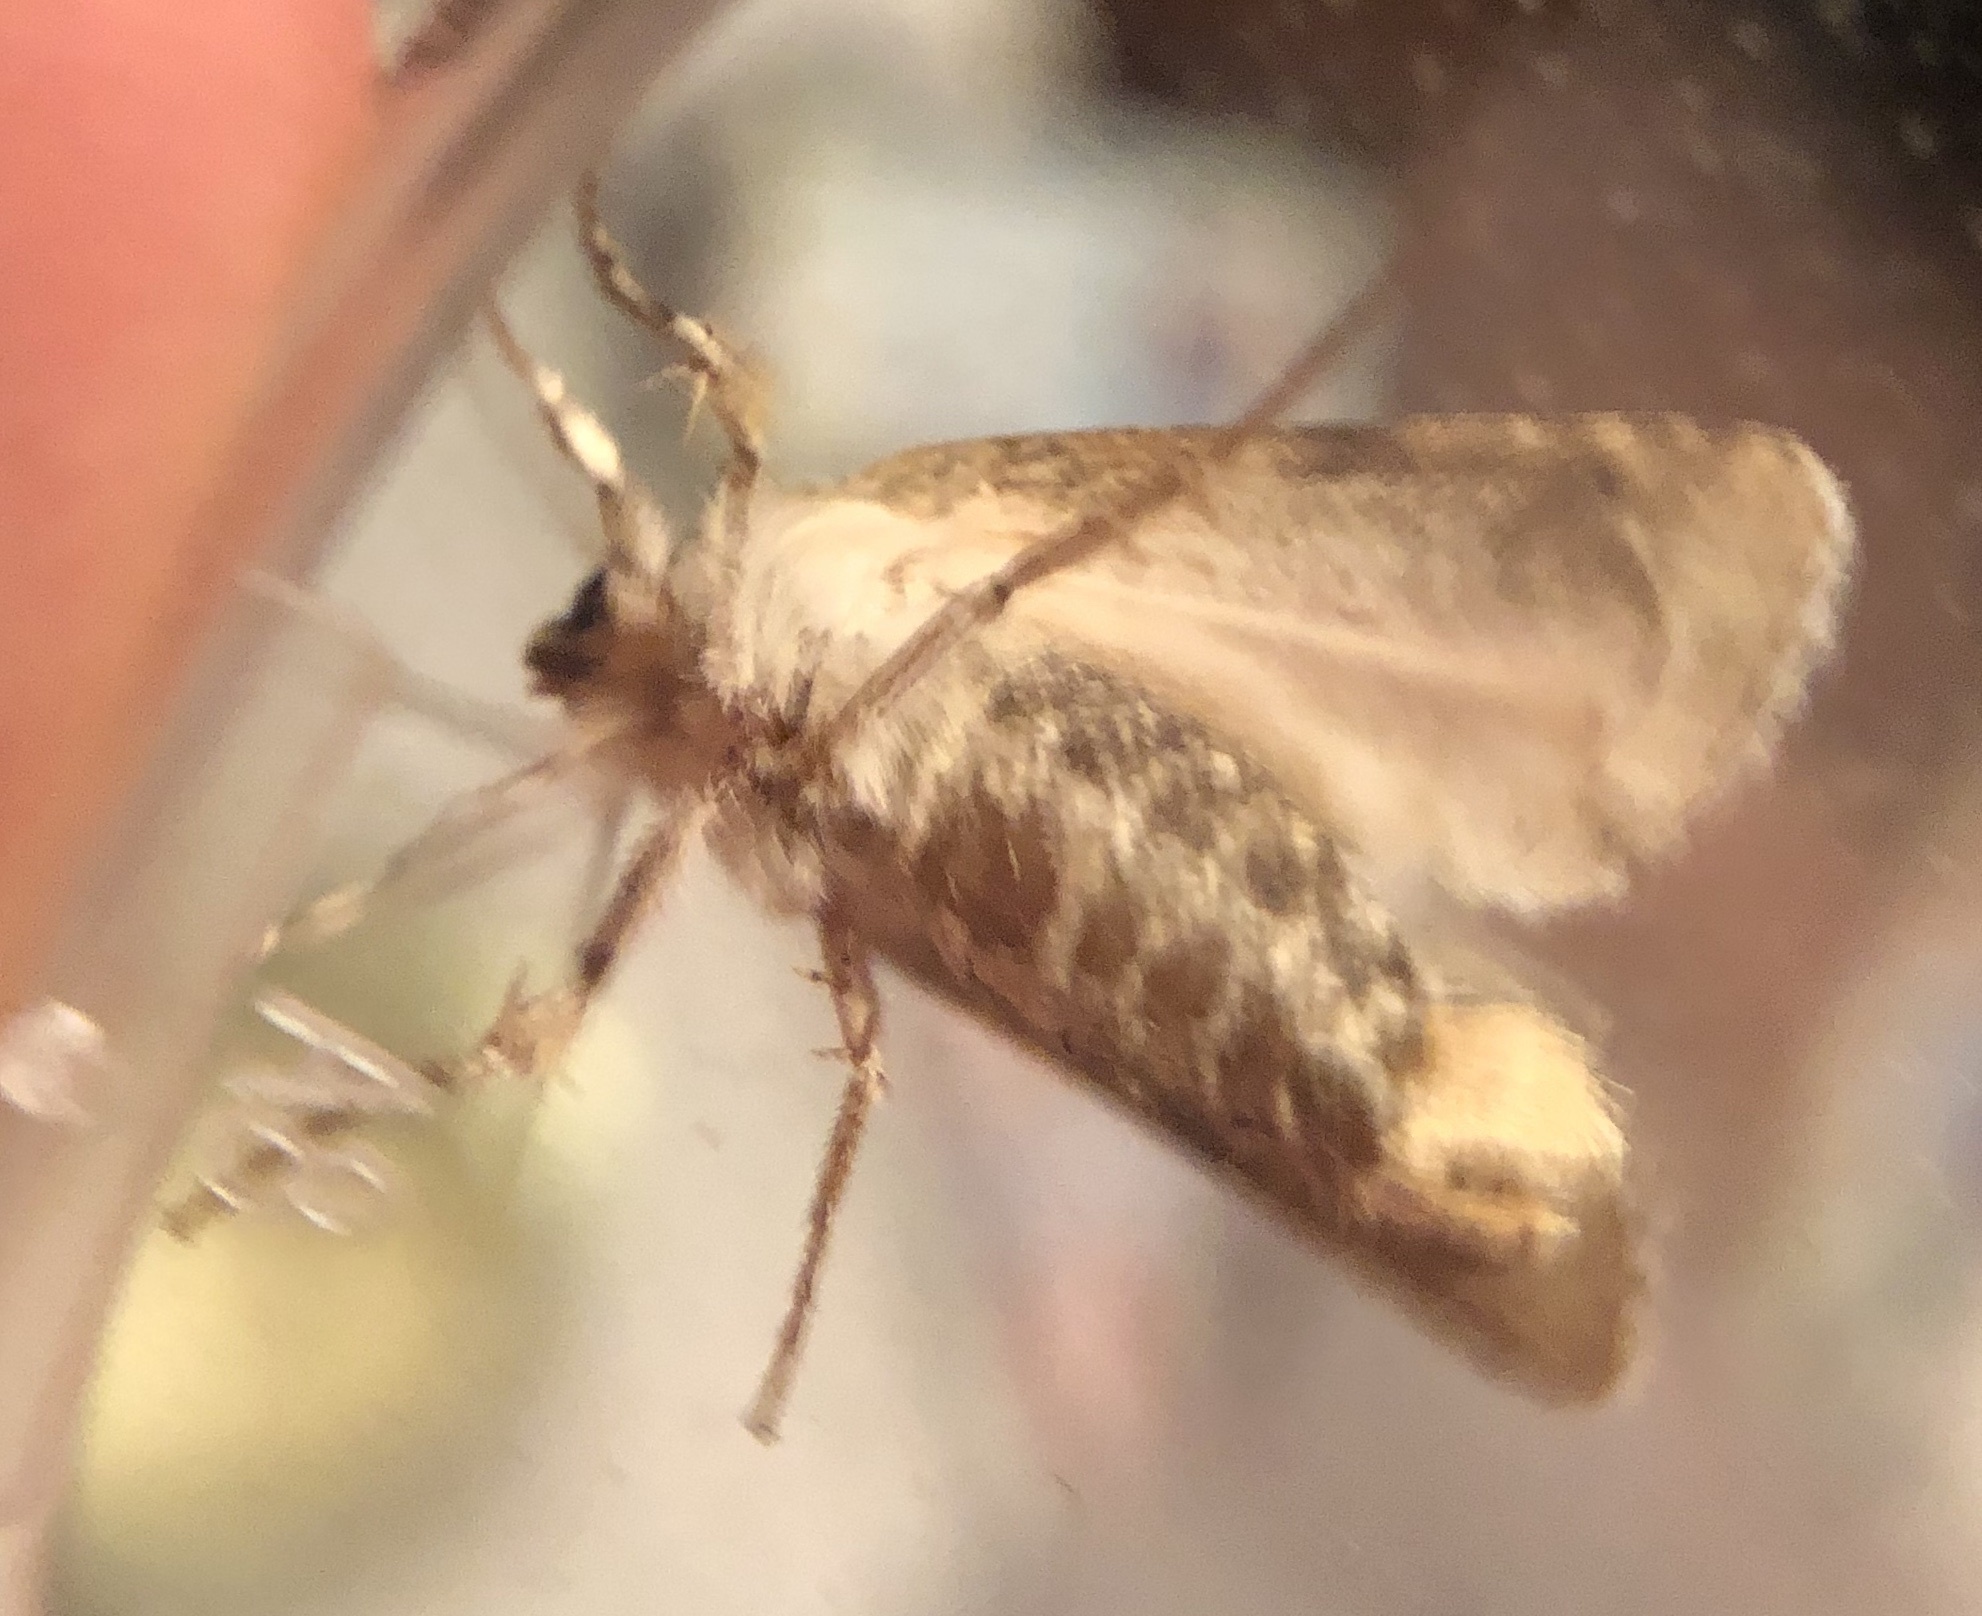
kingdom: Animalia
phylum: Arthropoda
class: Insecta
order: Lepidoptera
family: Noctuidae
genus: Lacinipolia
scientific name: Lacinipolia implicata
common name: Implicit arches
